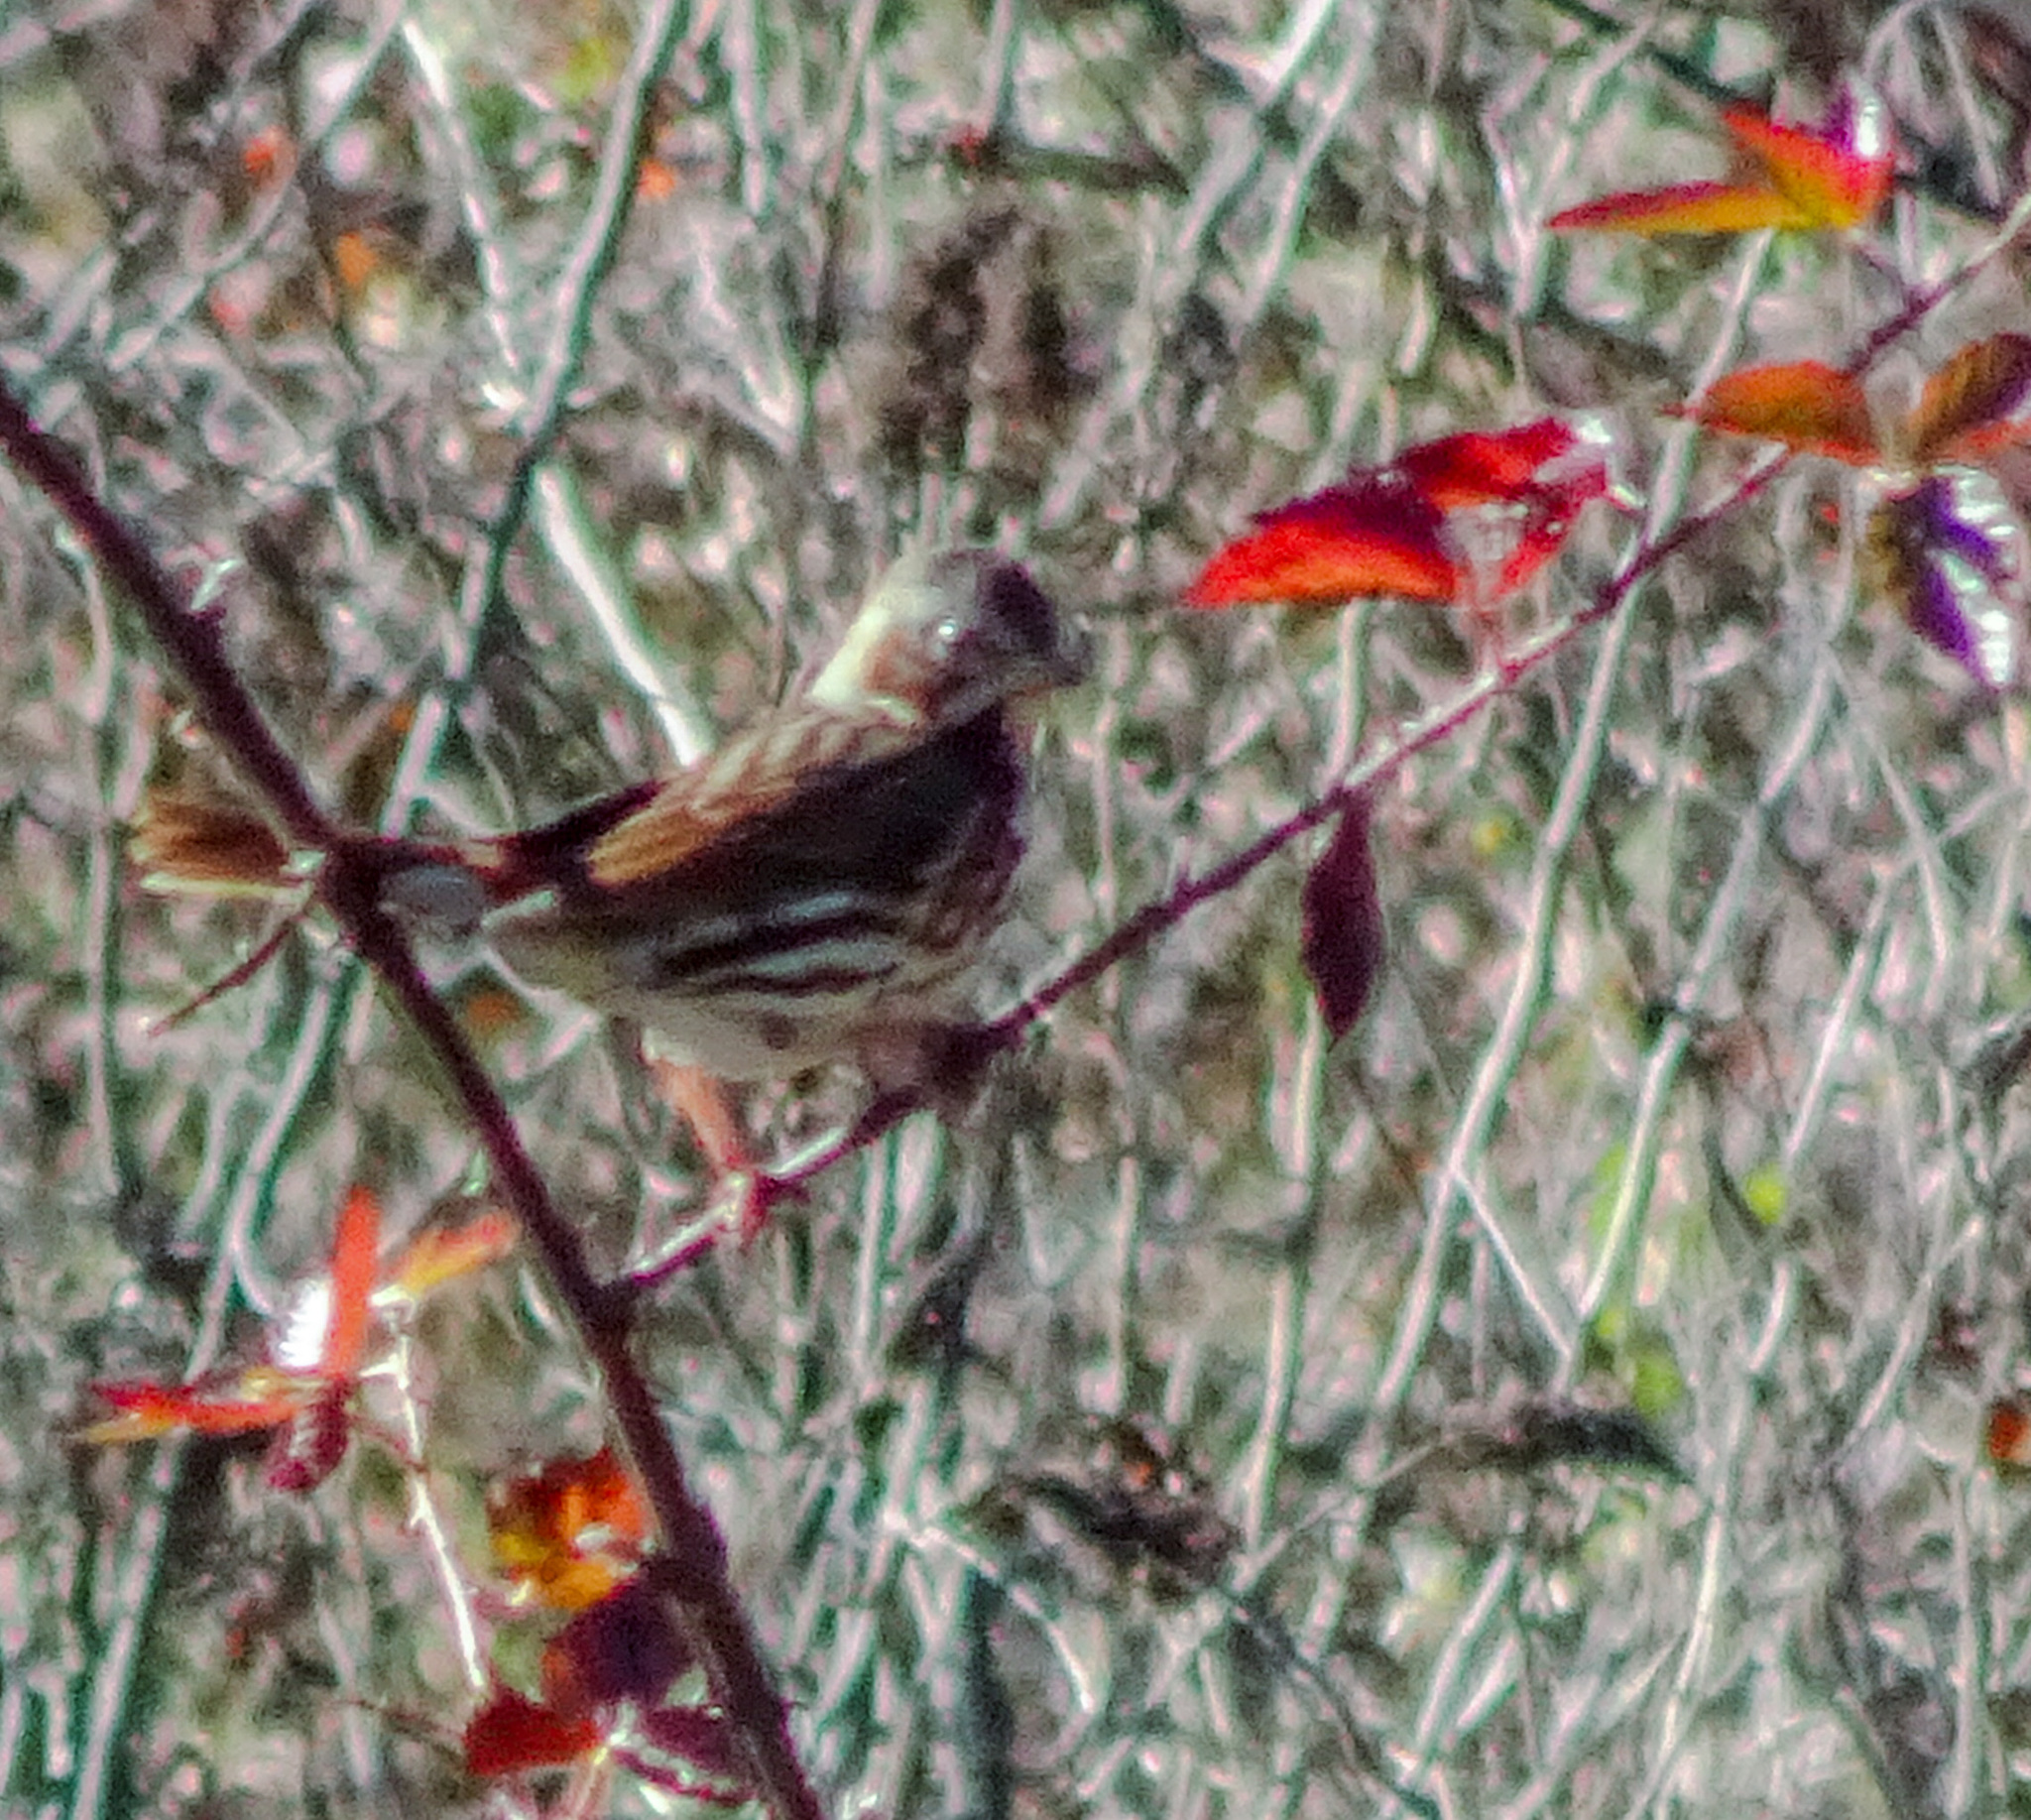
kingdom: Animalia
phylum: Chordata
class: Aves
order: Passeriformes
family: Passerellidae
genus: Passerella
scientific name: Passerella iliaca
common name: Fox sparrow
